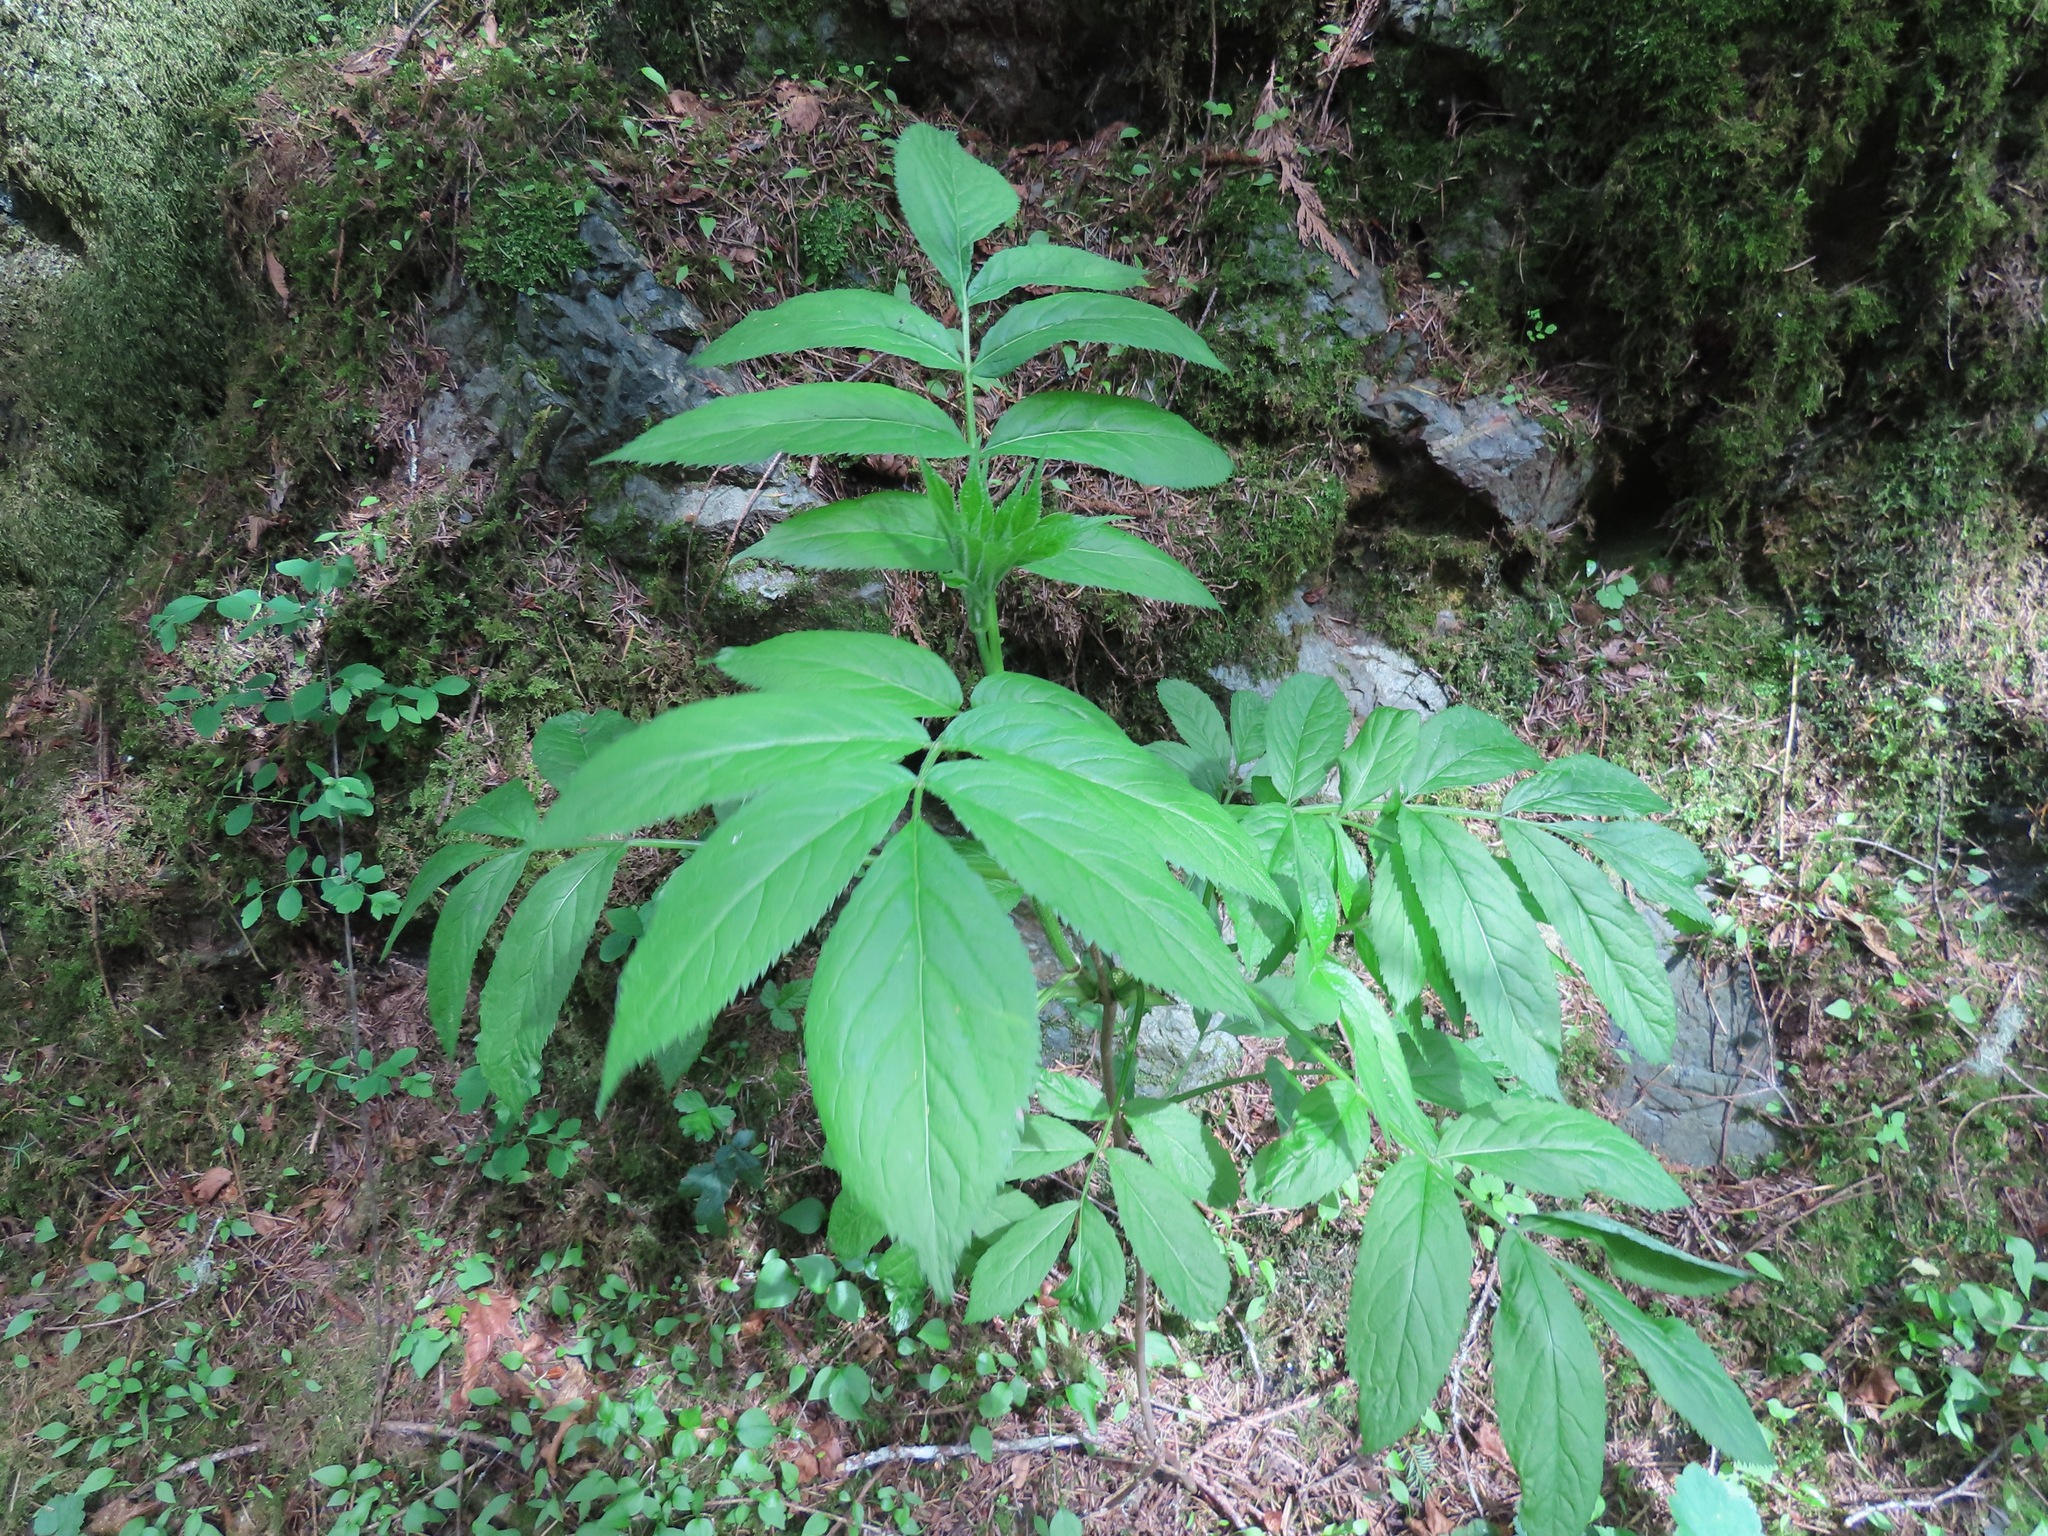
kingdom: Plantae
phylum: Tracheophyta
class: Magnoliopsida
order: Dipsacales
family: Viburnaceae
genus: Sambucus
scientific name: Sambucus racemosa
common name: Red-berried elder
